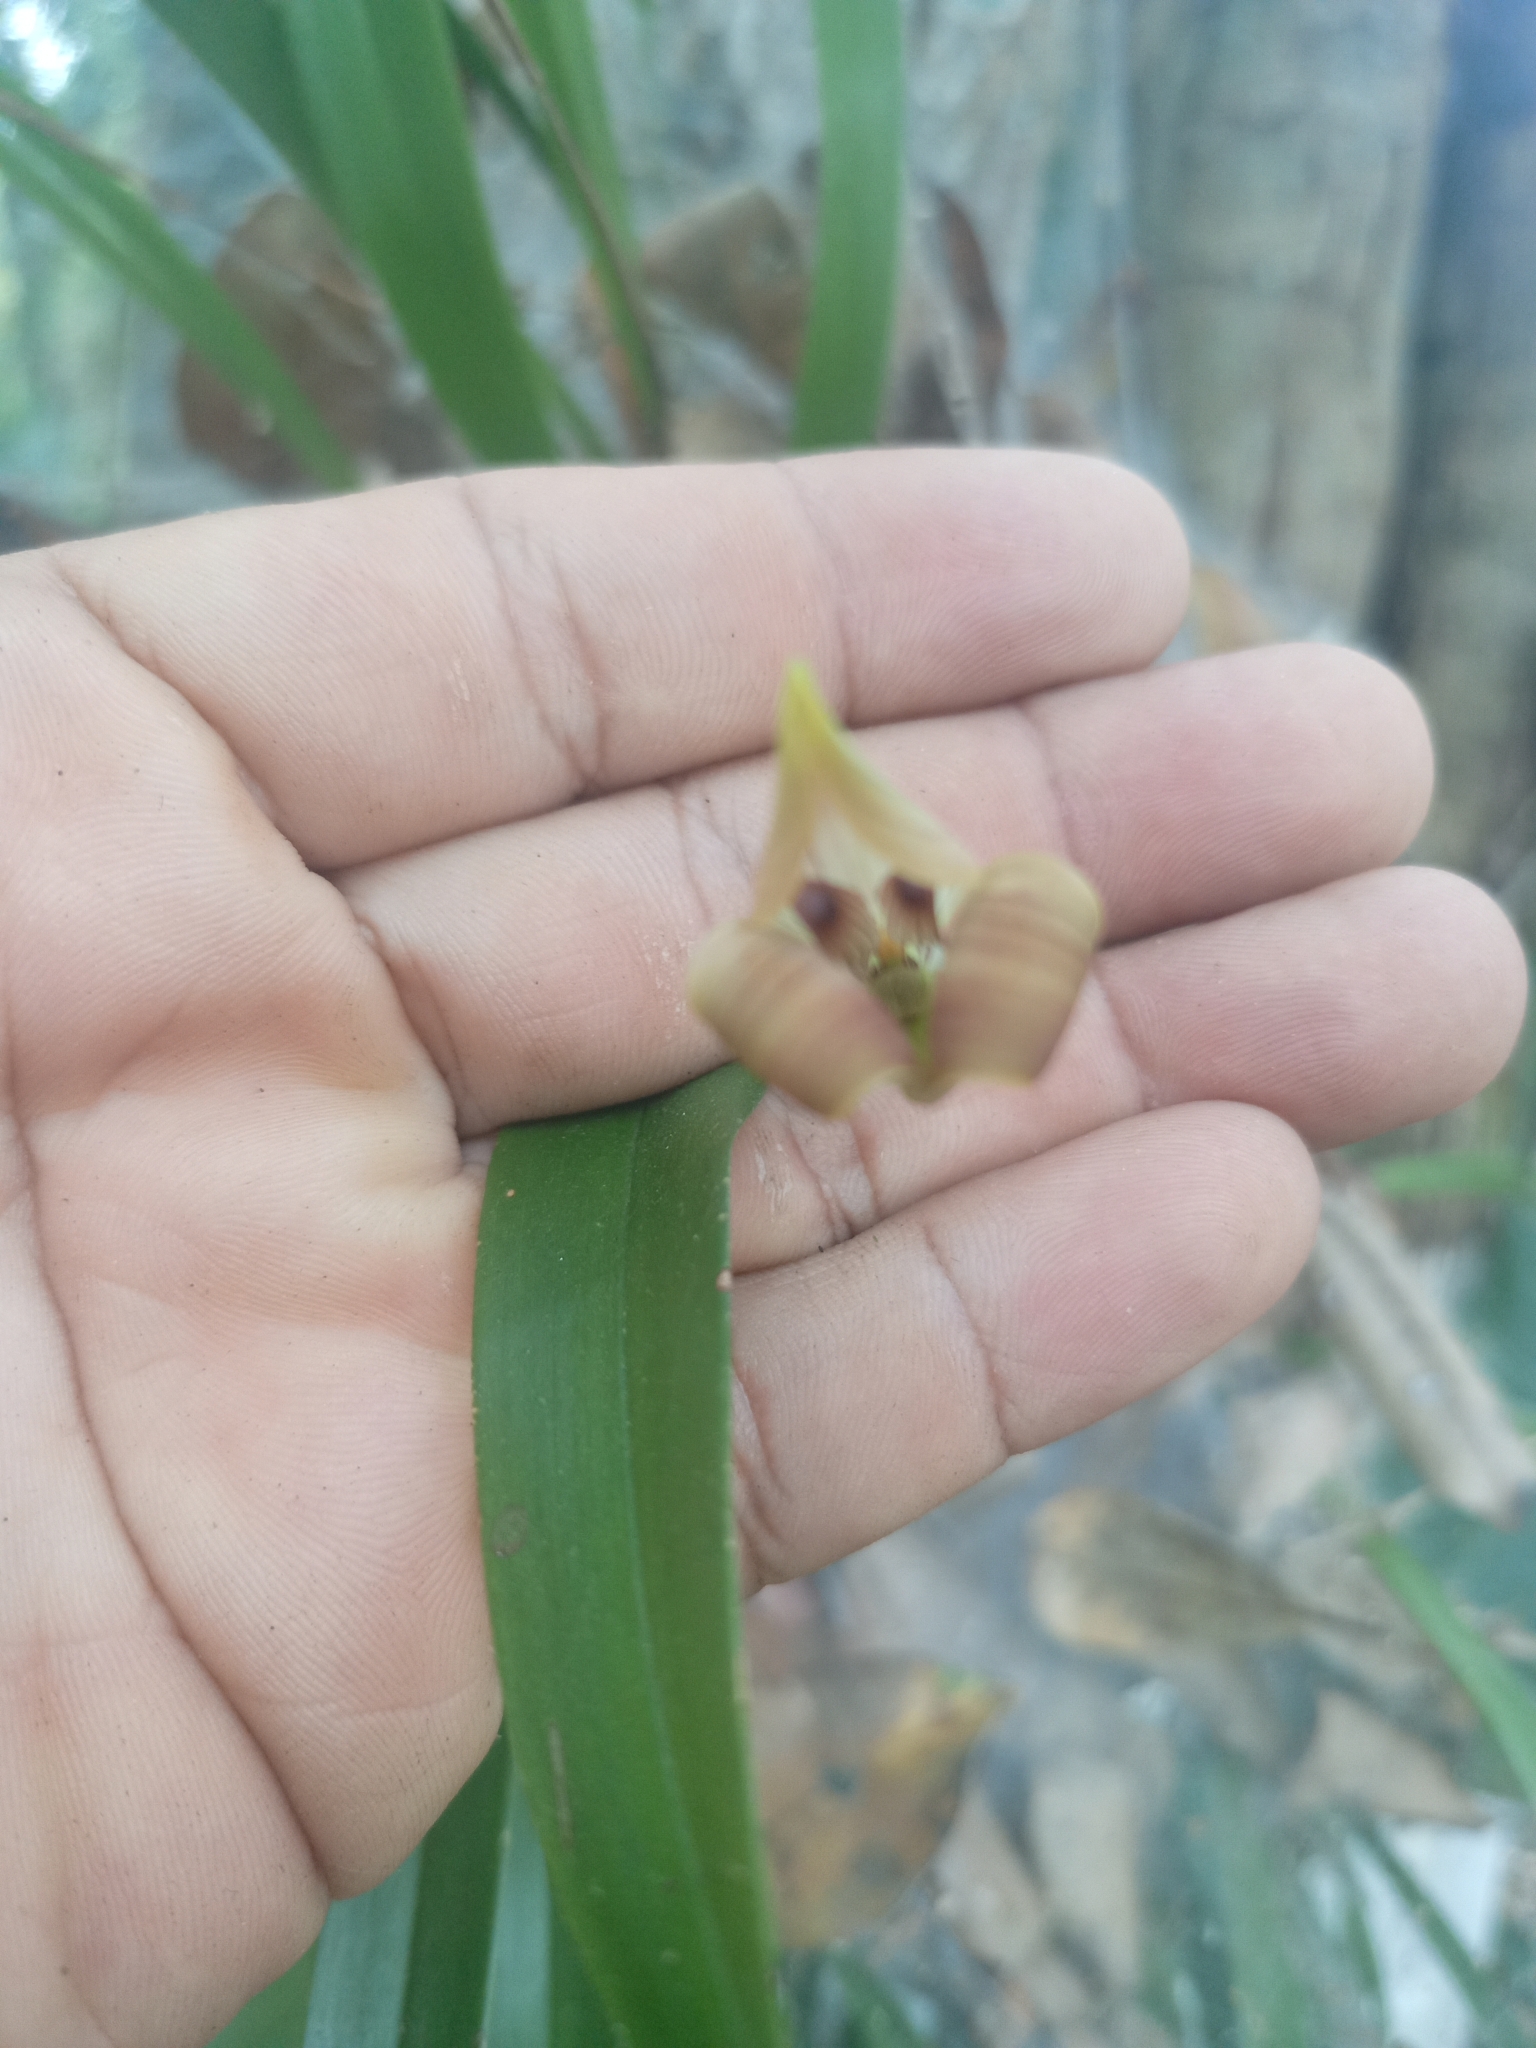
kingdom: Plantae
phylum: Tracheophyta
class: Liliopsida
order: Asparagales
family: Orchidaceae
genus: Maxillaria
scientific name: Maxillaria egertoniana
